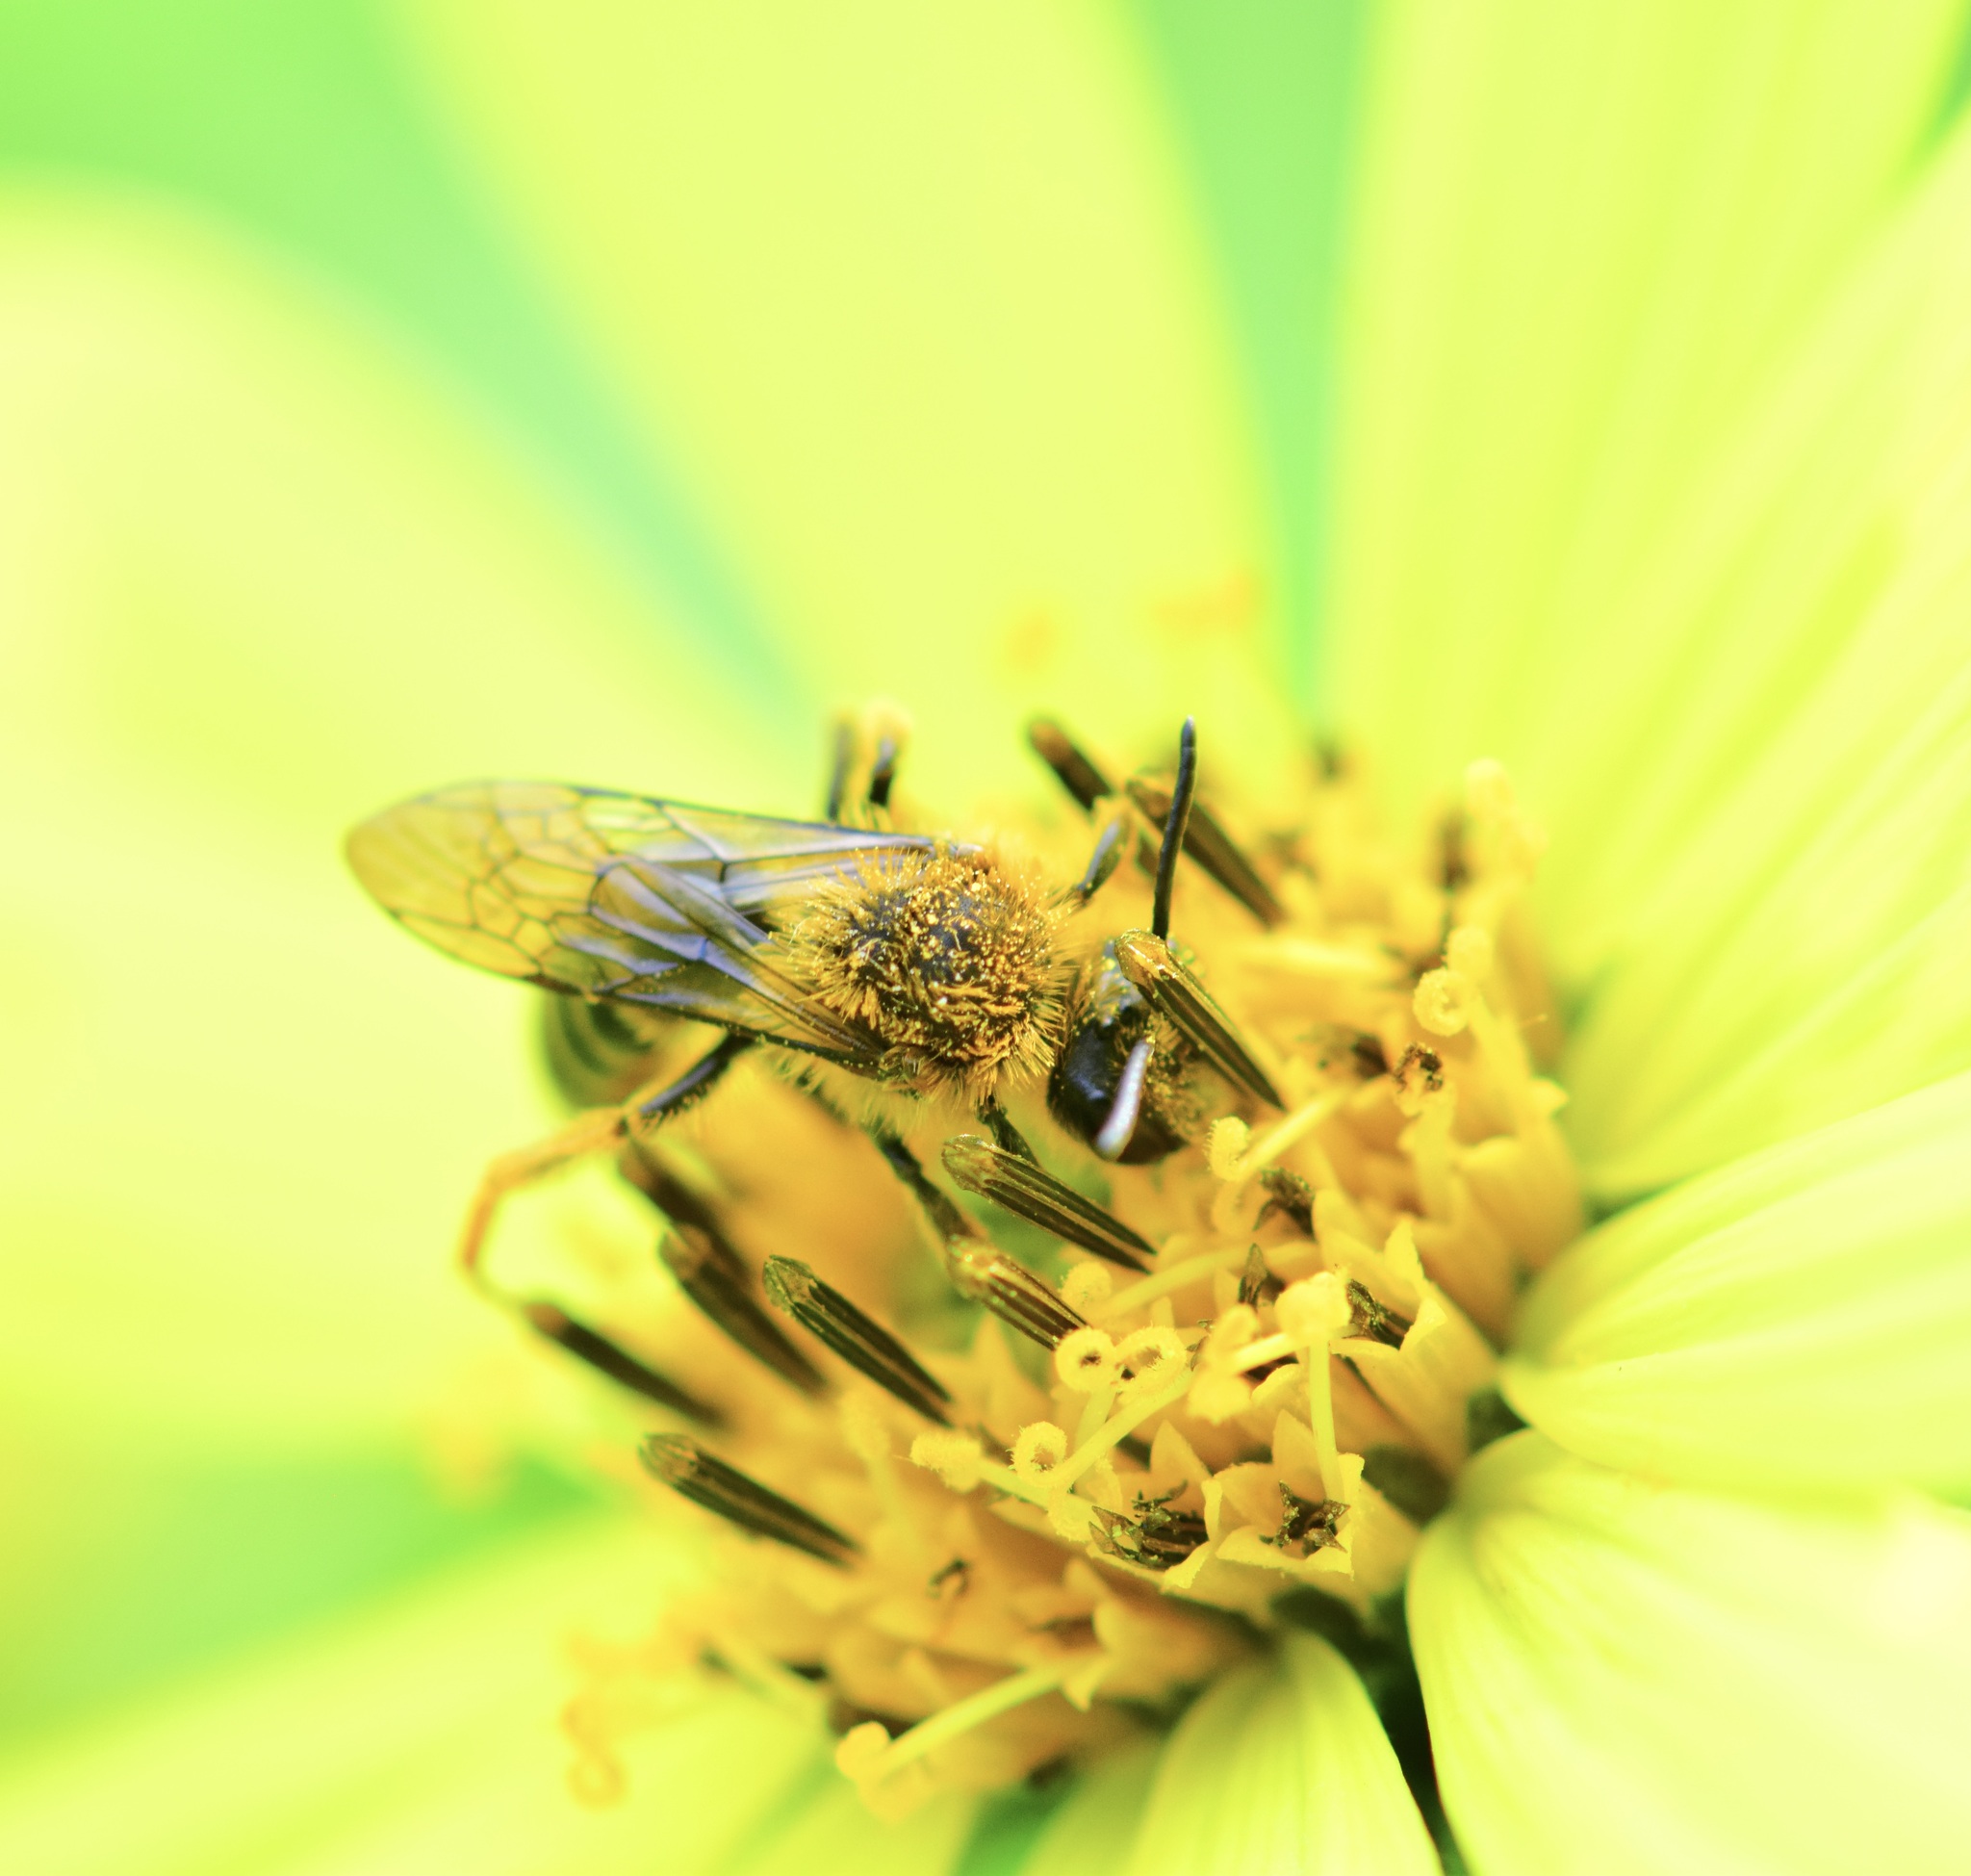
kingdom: Animalia
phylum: Arthropoda
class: Insecta
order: Hymenoptera
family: Andrenidae
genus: Andrena
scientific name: Andrena helianthi
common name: Sunflower mining bee
